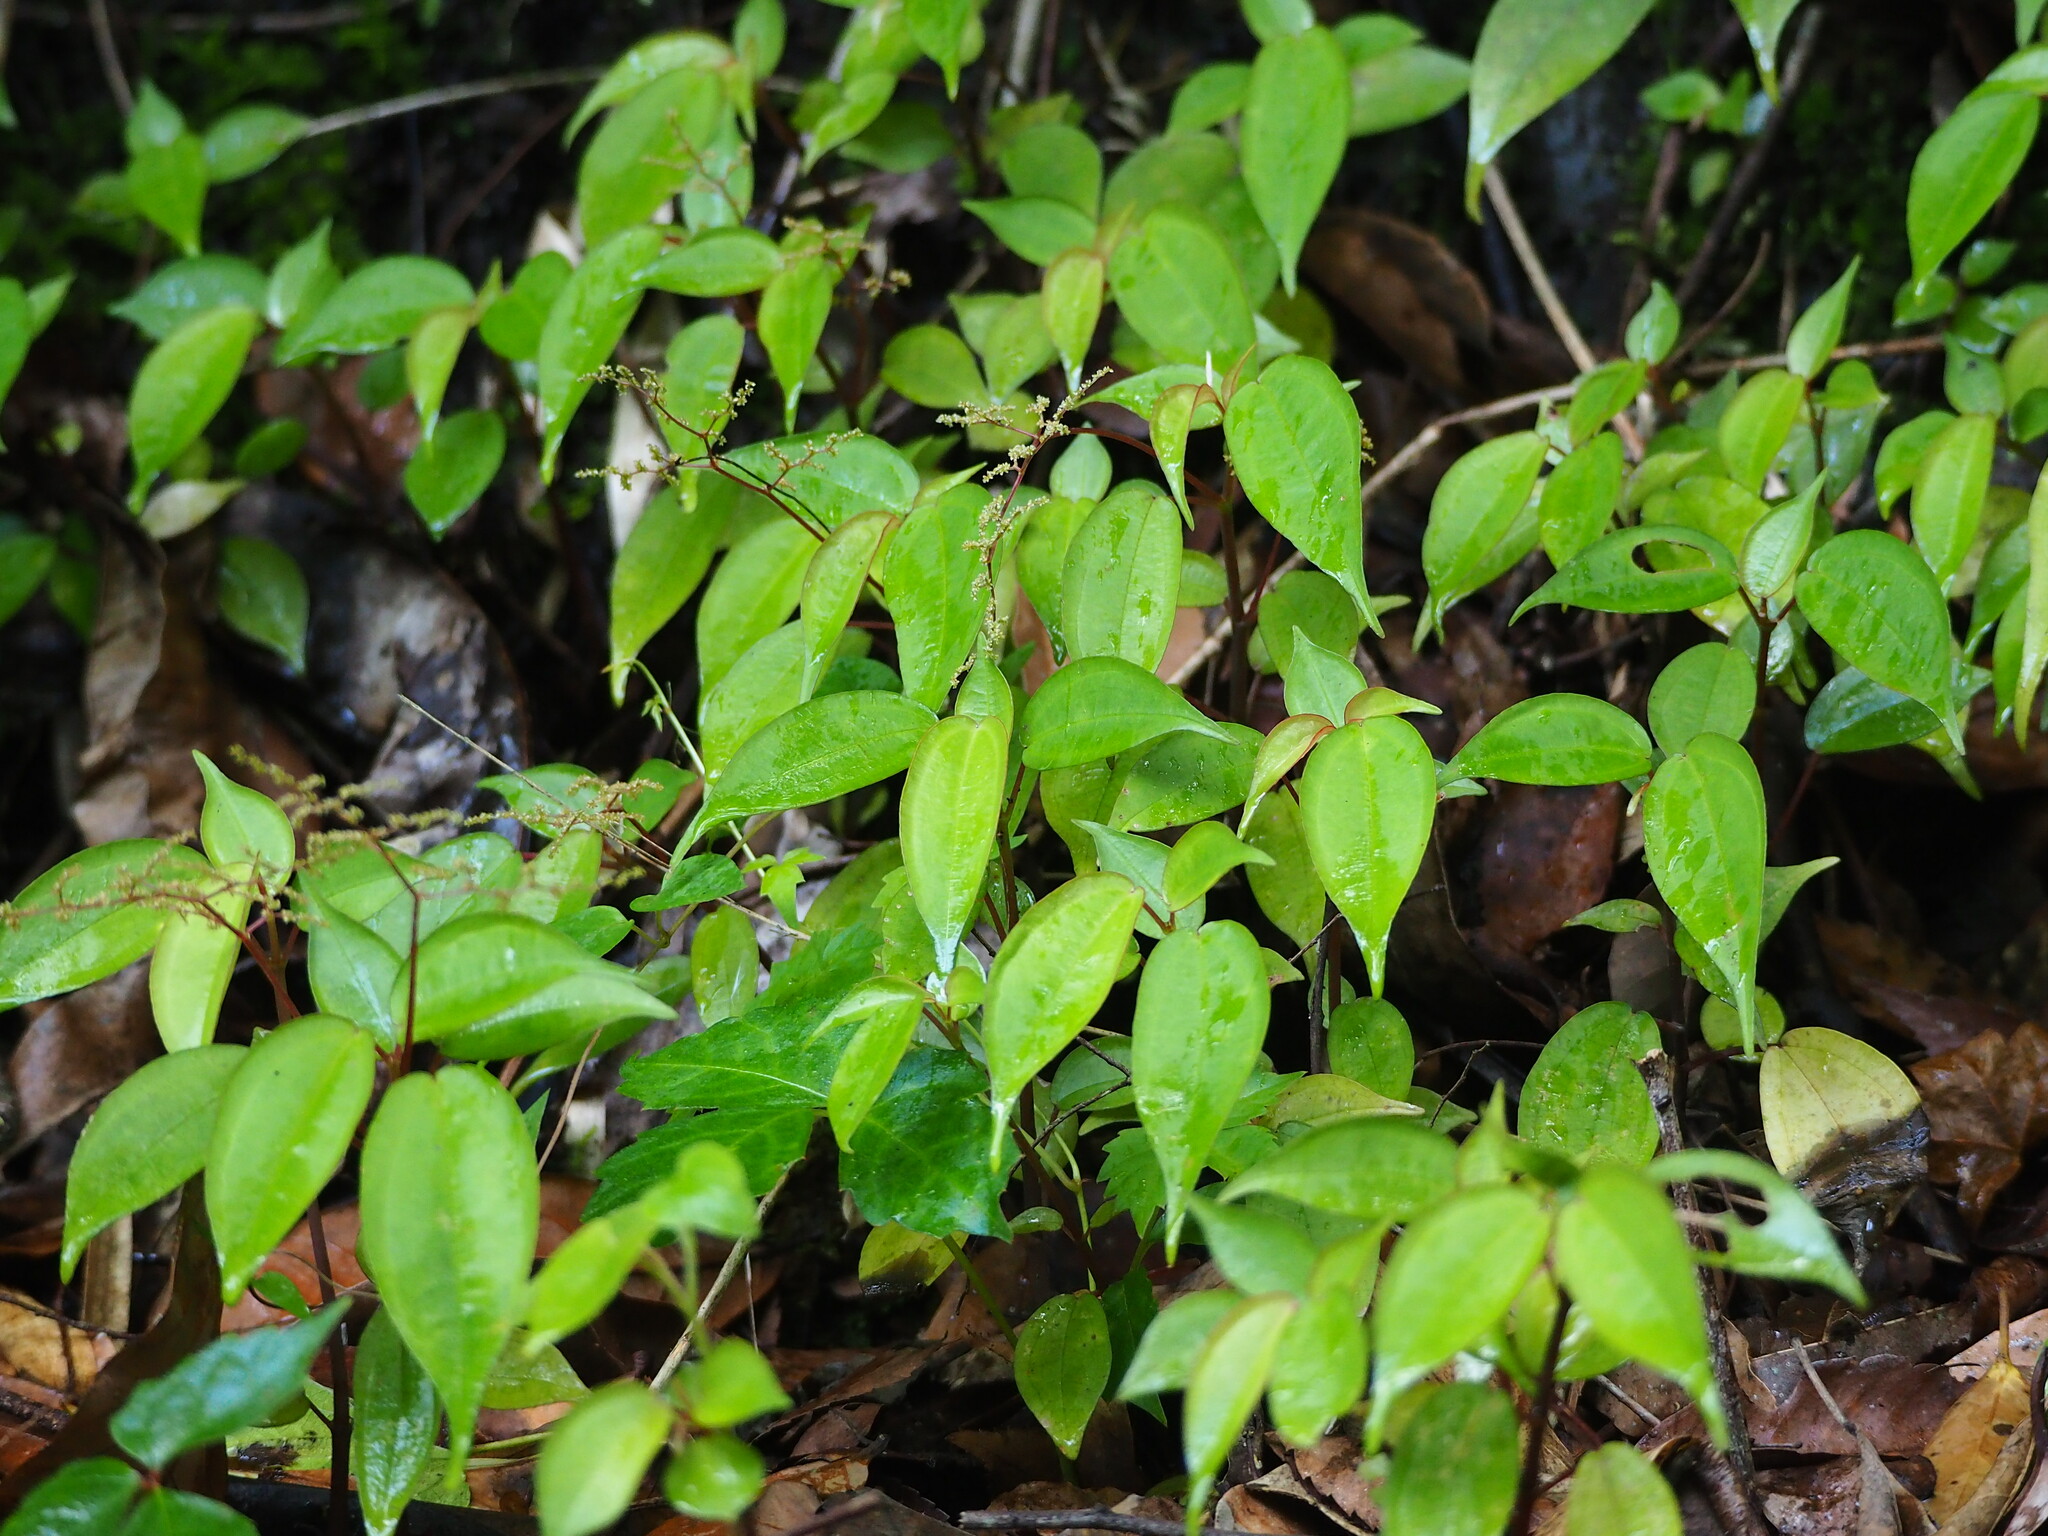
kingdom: Plantae
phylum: Tracheophyta
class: Magnoliopsida
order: Rosales
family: Urticaceae
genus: Pilea
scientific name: Pilea plataniflora
